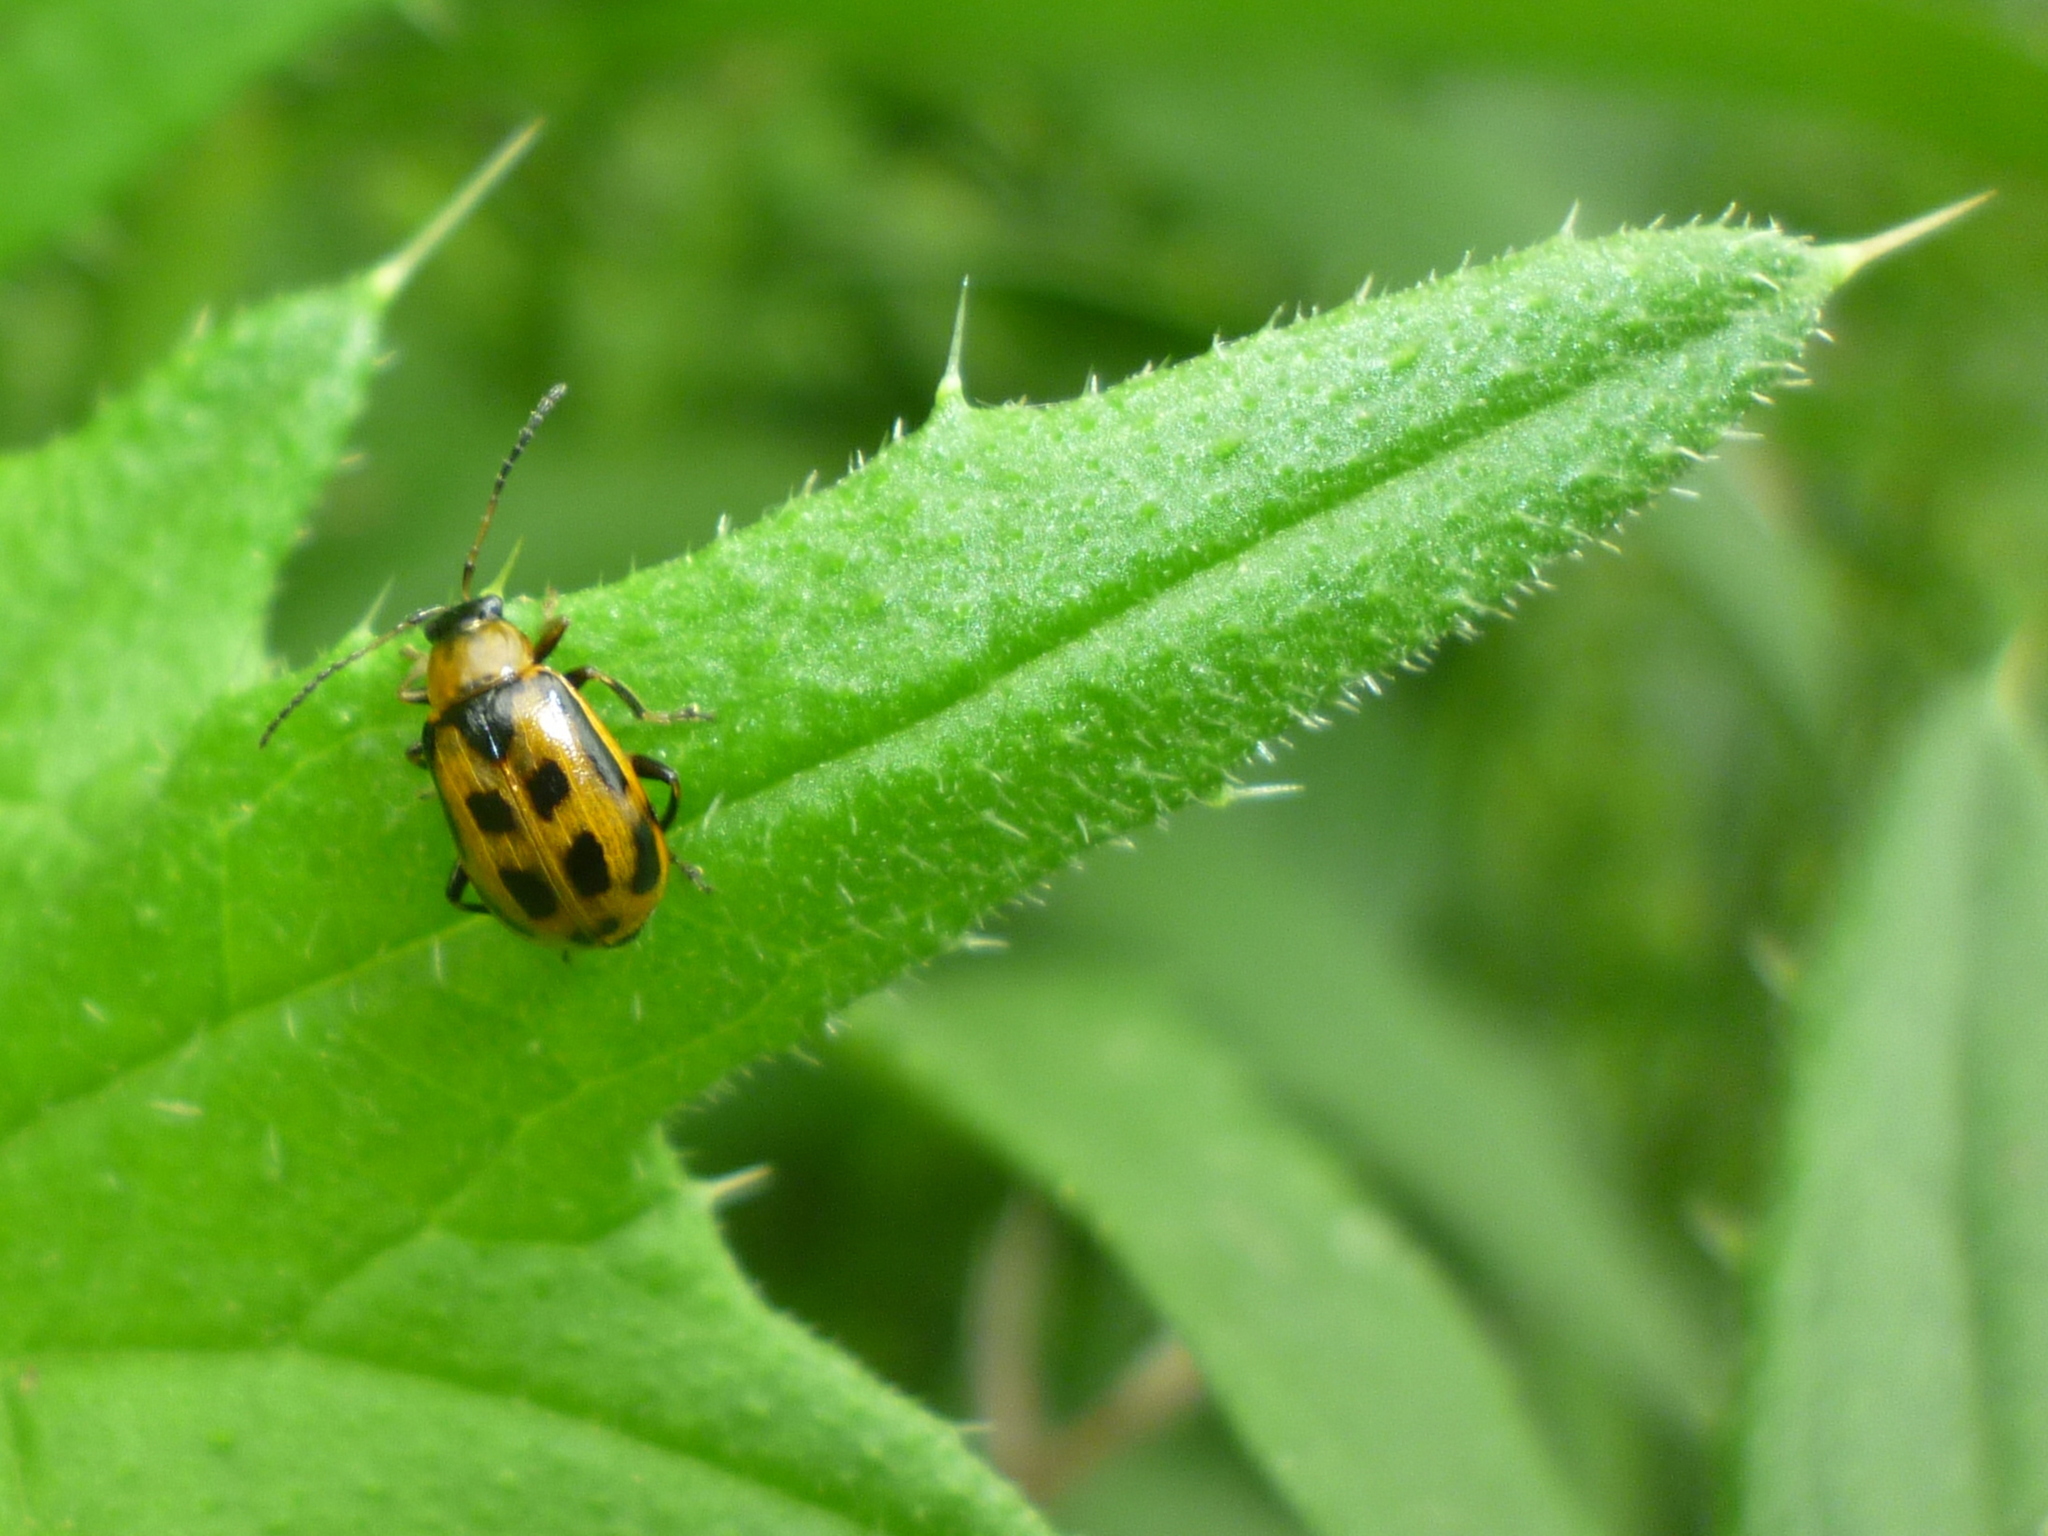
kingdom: Animalia
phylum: Arthropoda
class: Insecta
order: Coleoptera
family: Chrysomelidae
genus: Cerotoma
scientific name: Cerotoma trifurcata
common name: Bean leaf beetle
